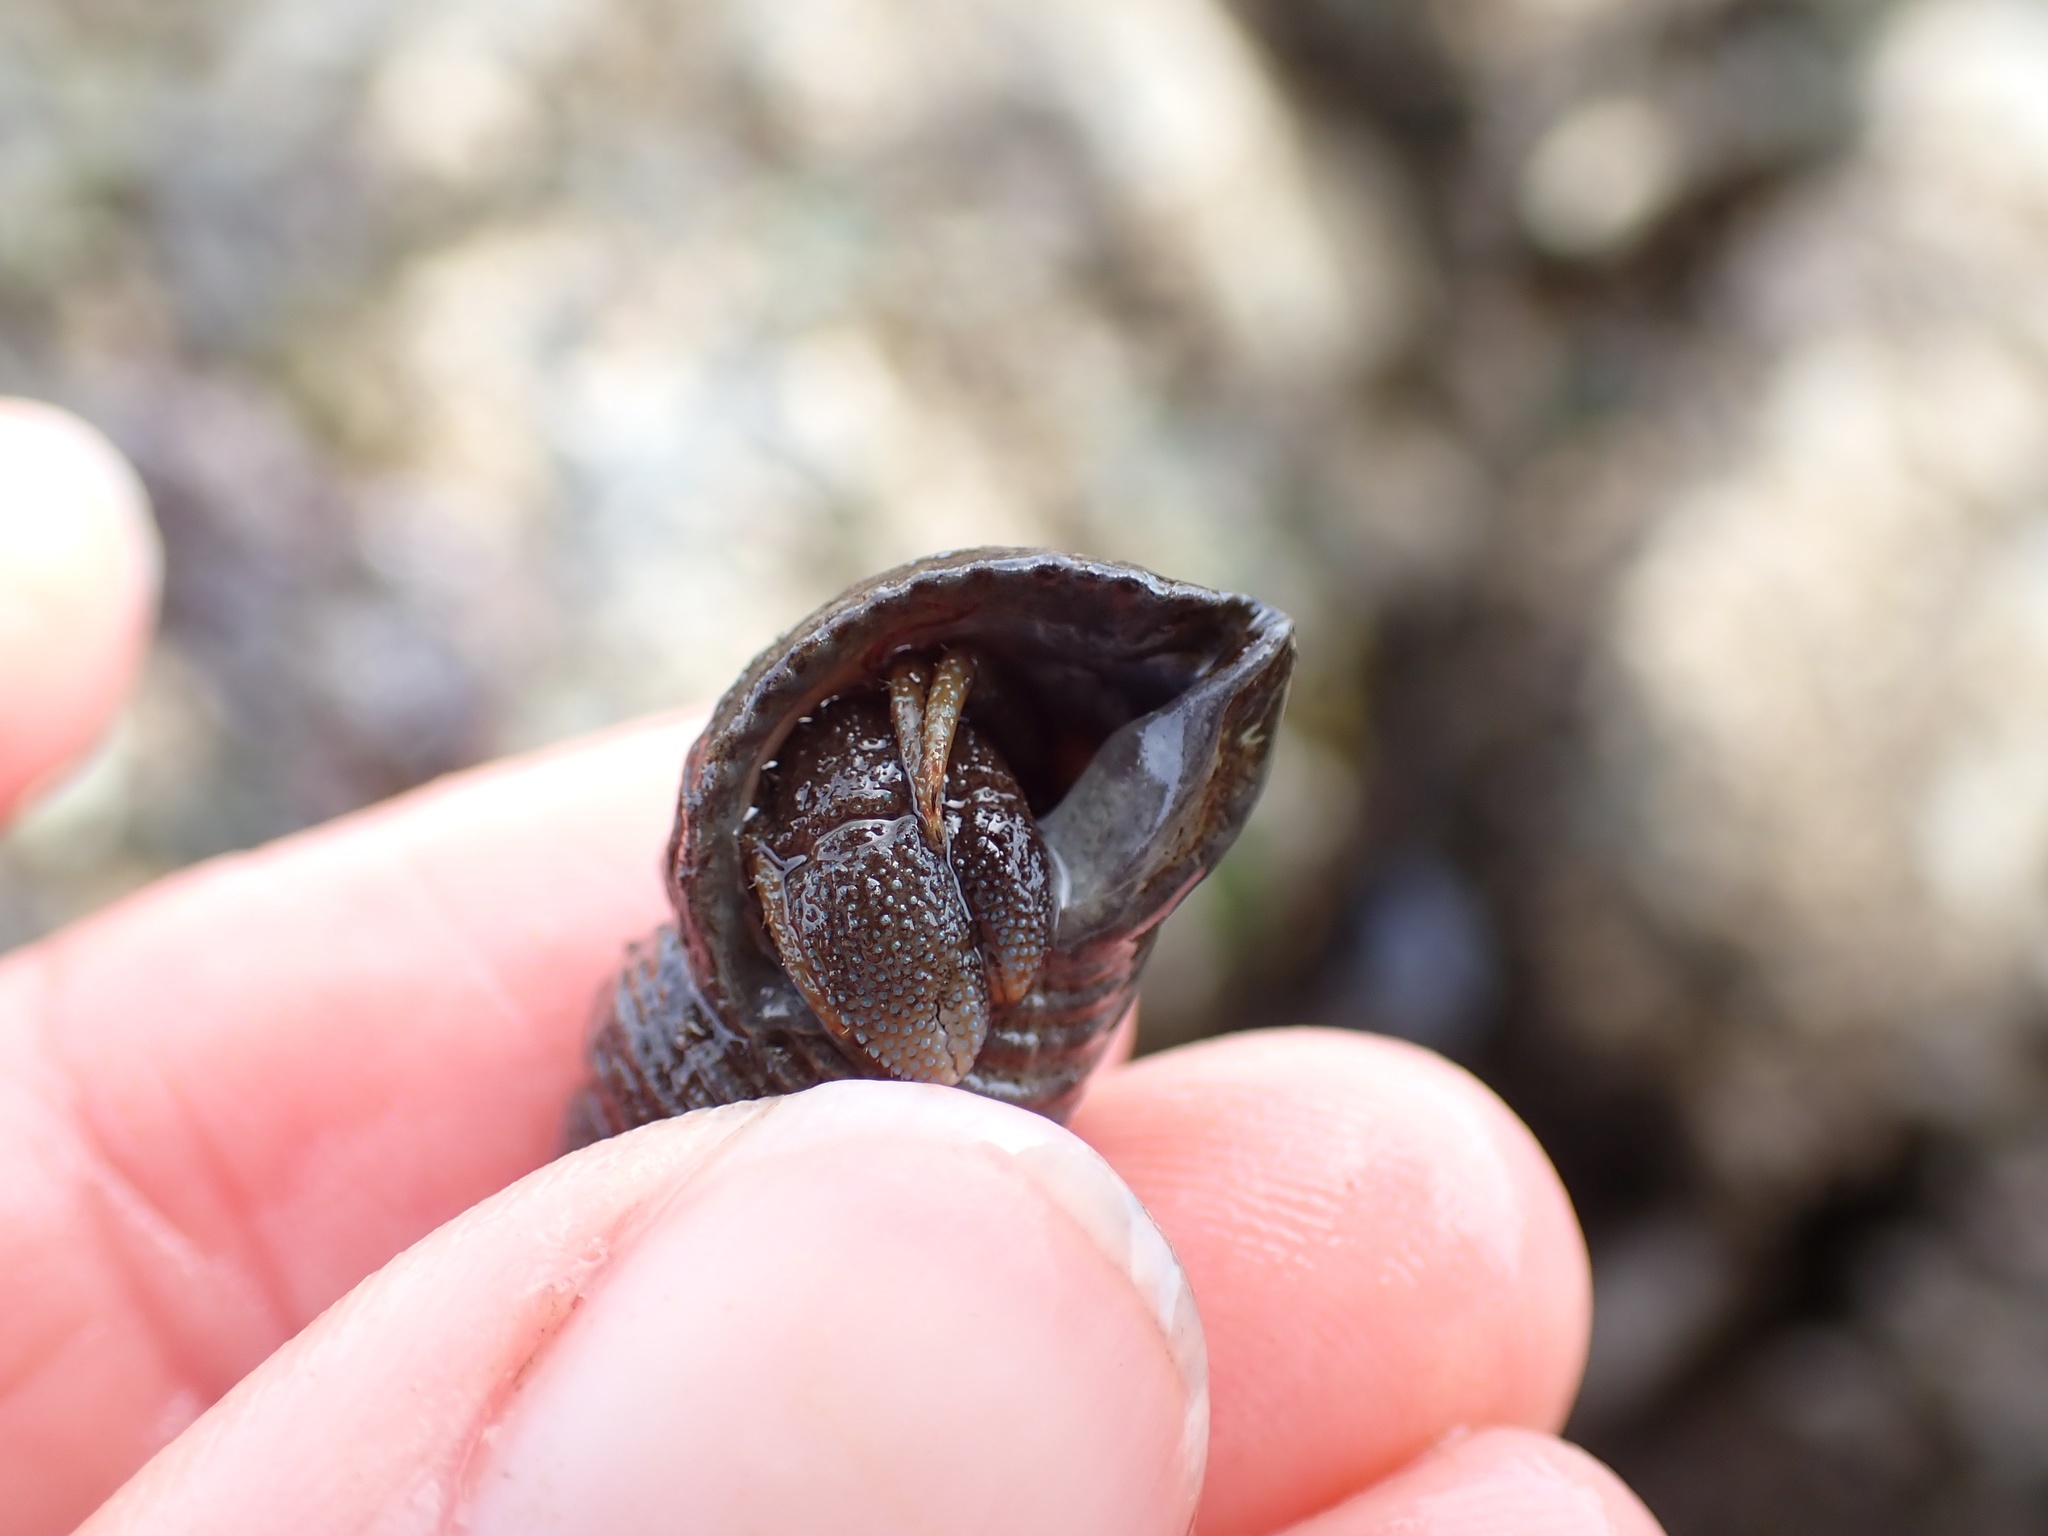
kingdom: Animalia
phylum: Arthropoda
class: Malacostraca
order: Decapoda
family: Paguridae
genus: Pagurus
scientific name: Pagurus granosimanus
